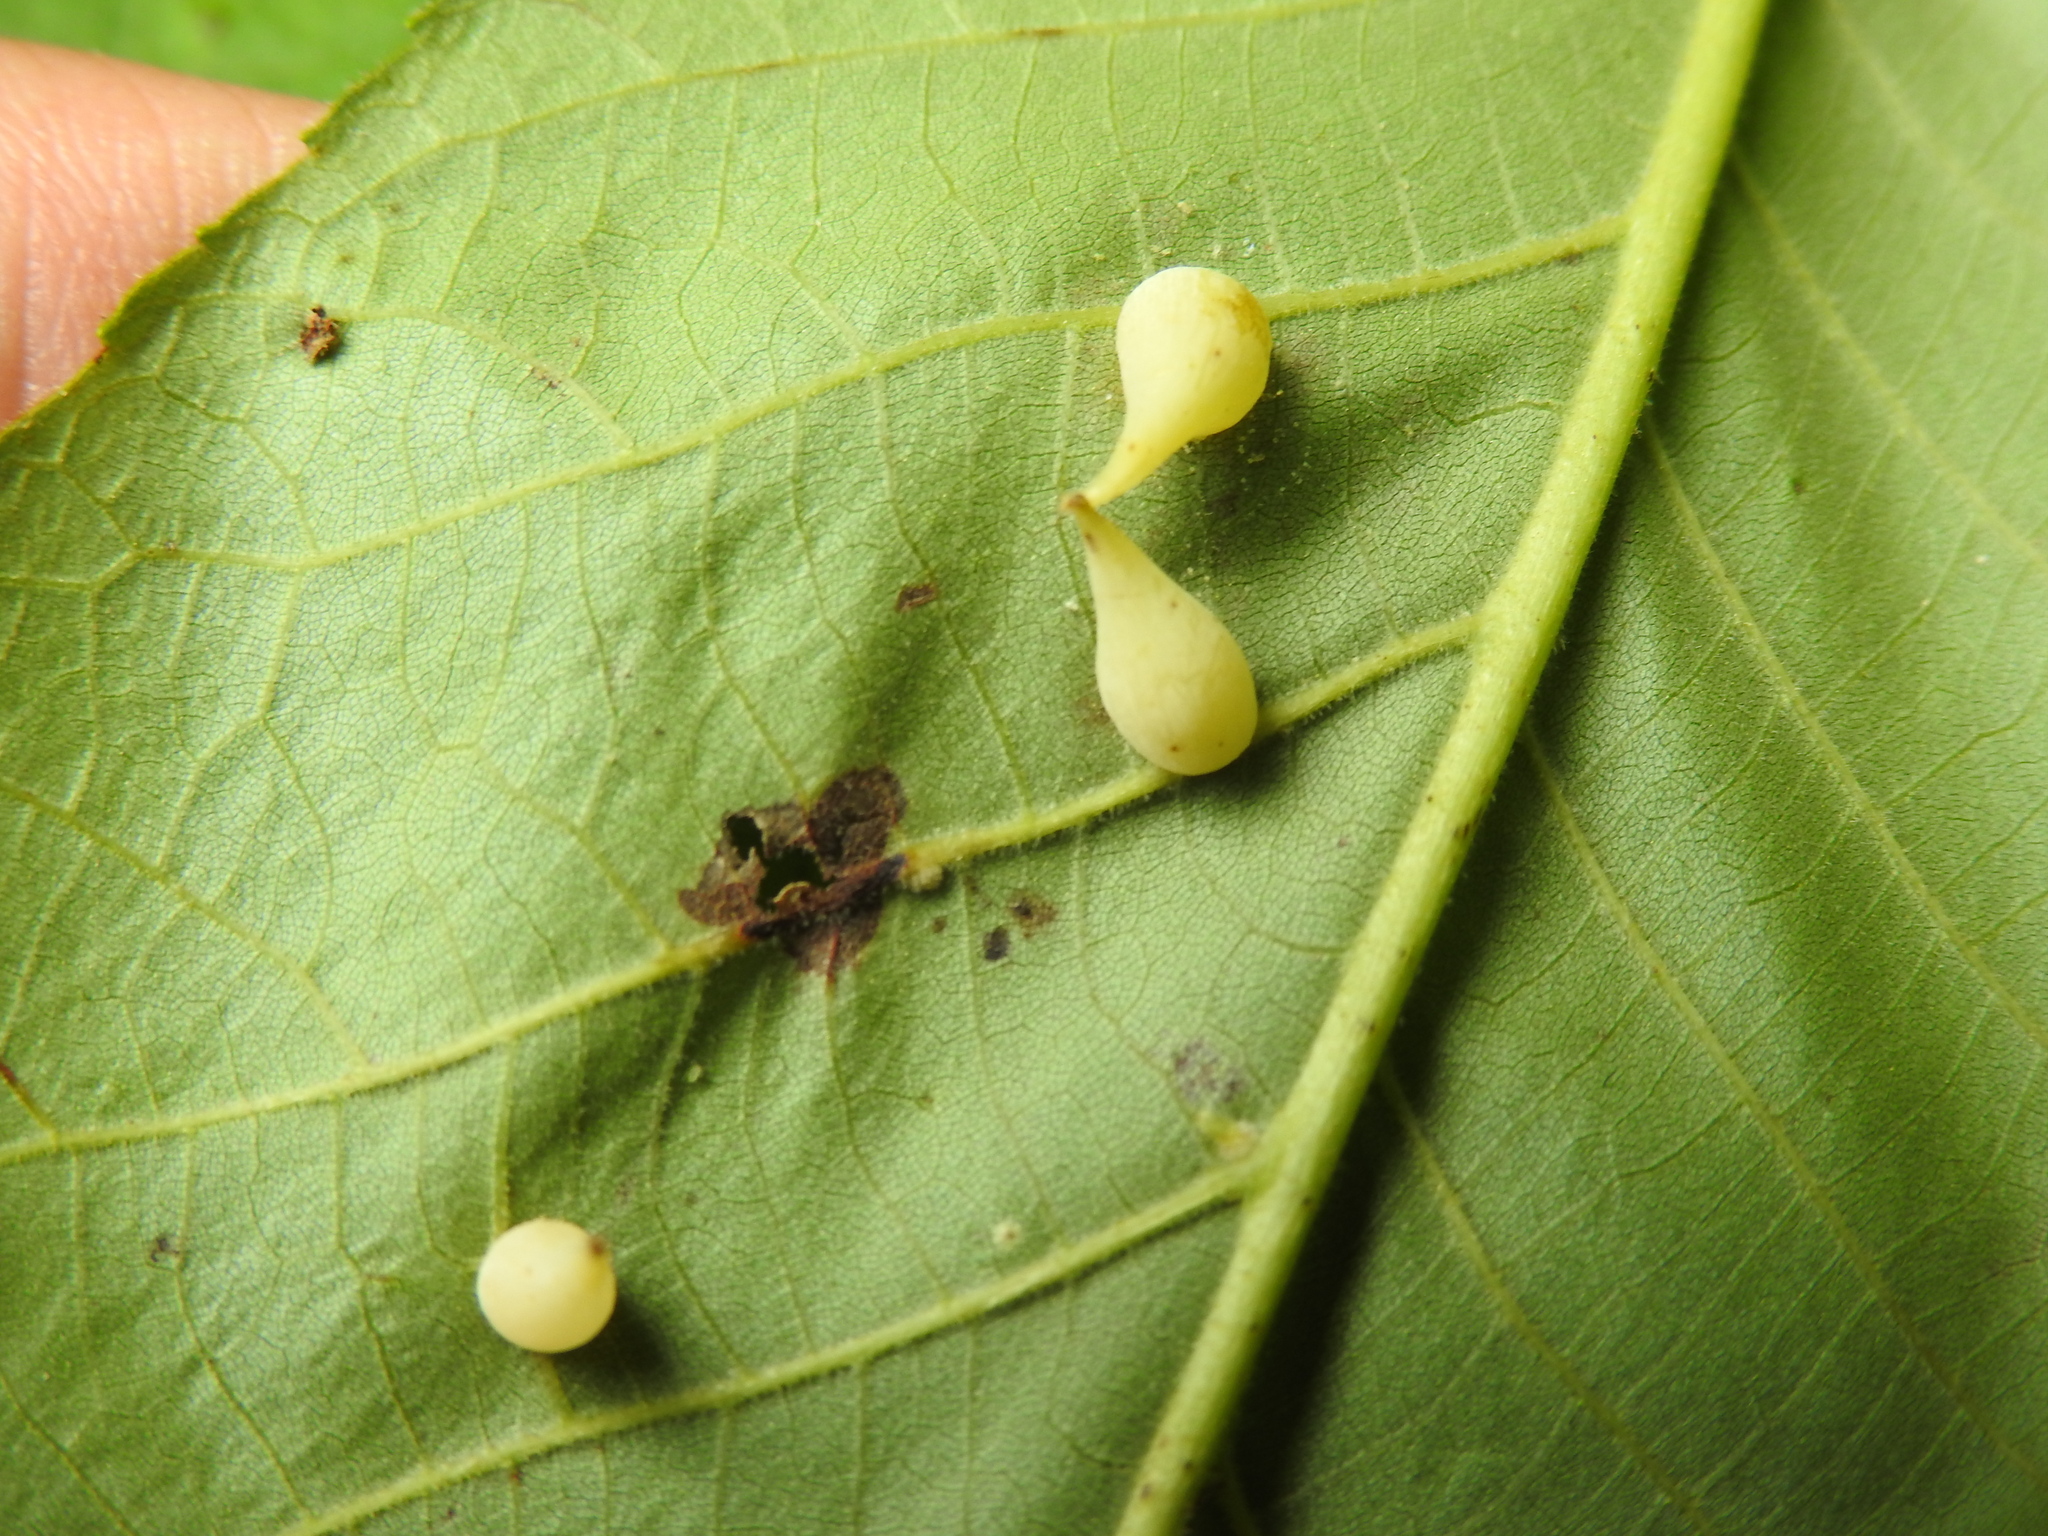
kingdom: Animalia
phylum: Arthropoda
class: Insecta
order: Diptera
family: Cecidomyiidae
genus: Caryomyia
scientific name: Caryomyia caryaecola
